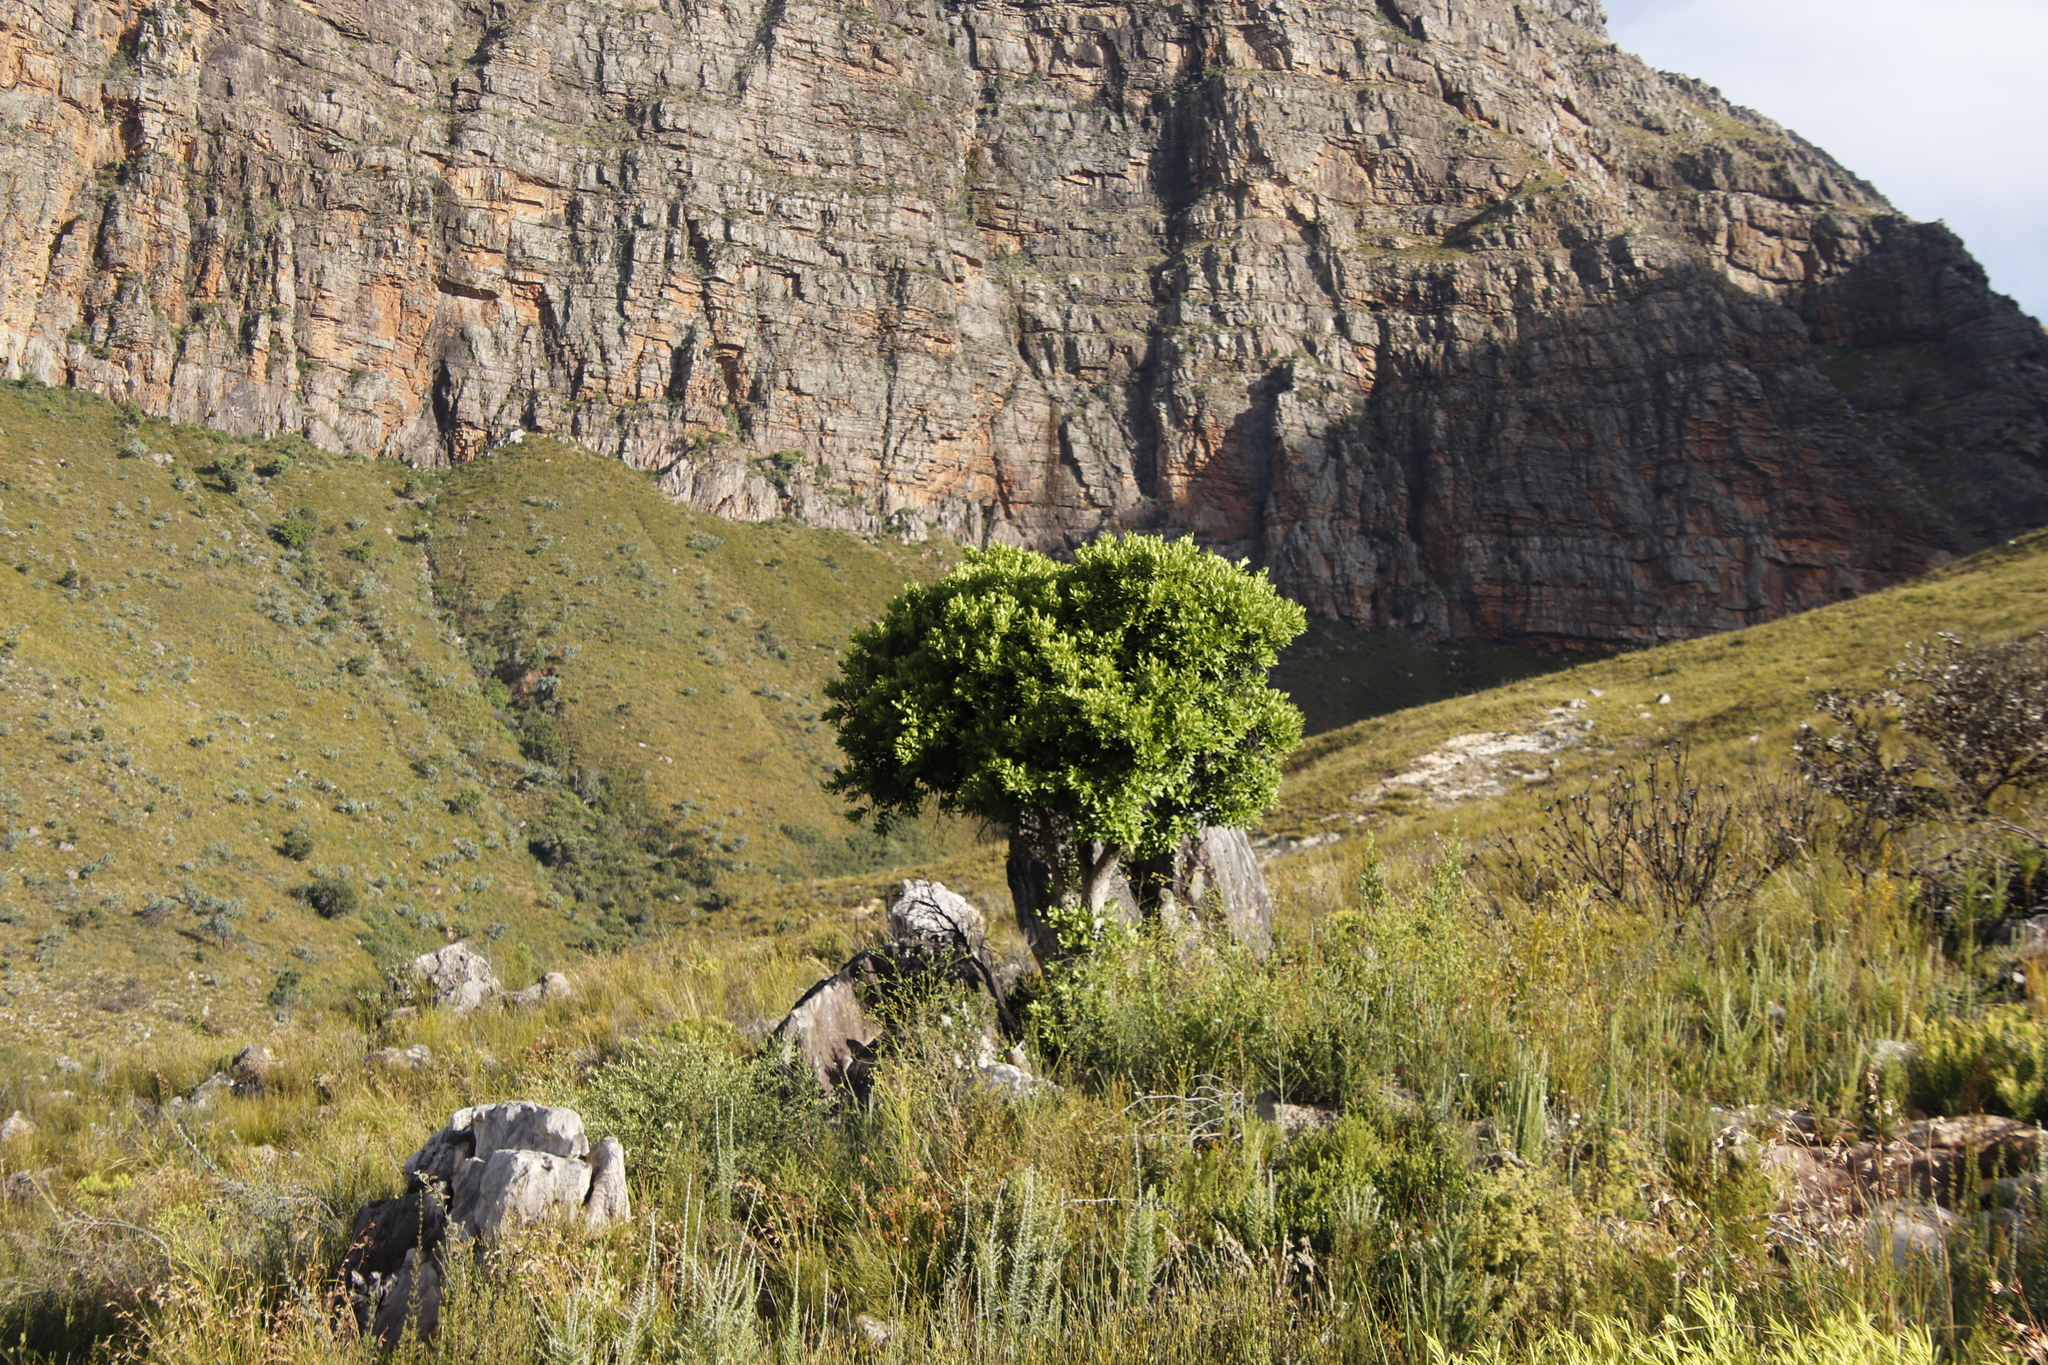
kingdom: Plantae
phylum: Tracheophyta
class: Magnoliopsida
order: Celastrales
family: Celastraceae
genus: Gymnosporia
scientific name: Gymnosporia laurina
